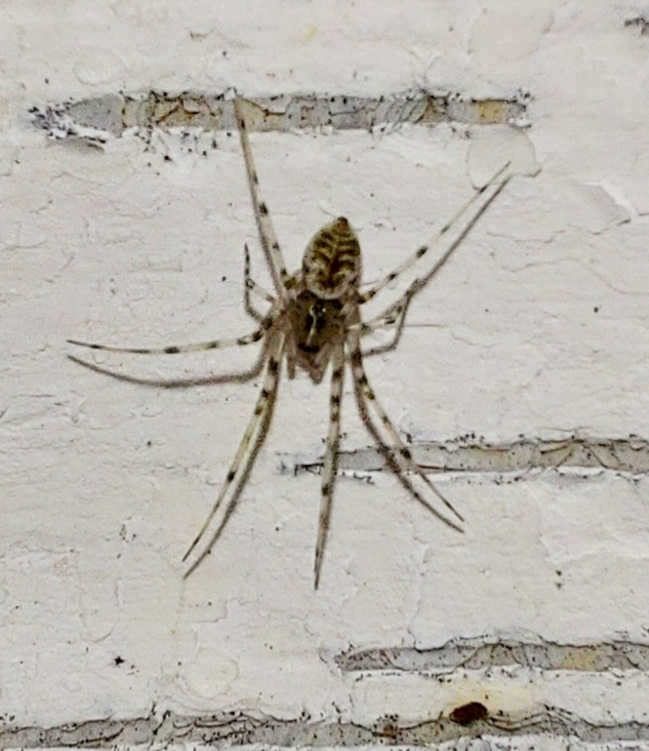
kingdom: Animalia
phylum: Arthropoda
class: Arachnida
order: Araneae
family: Linyphiidae
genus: Drapetisca
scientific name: Drapetisca socialis
